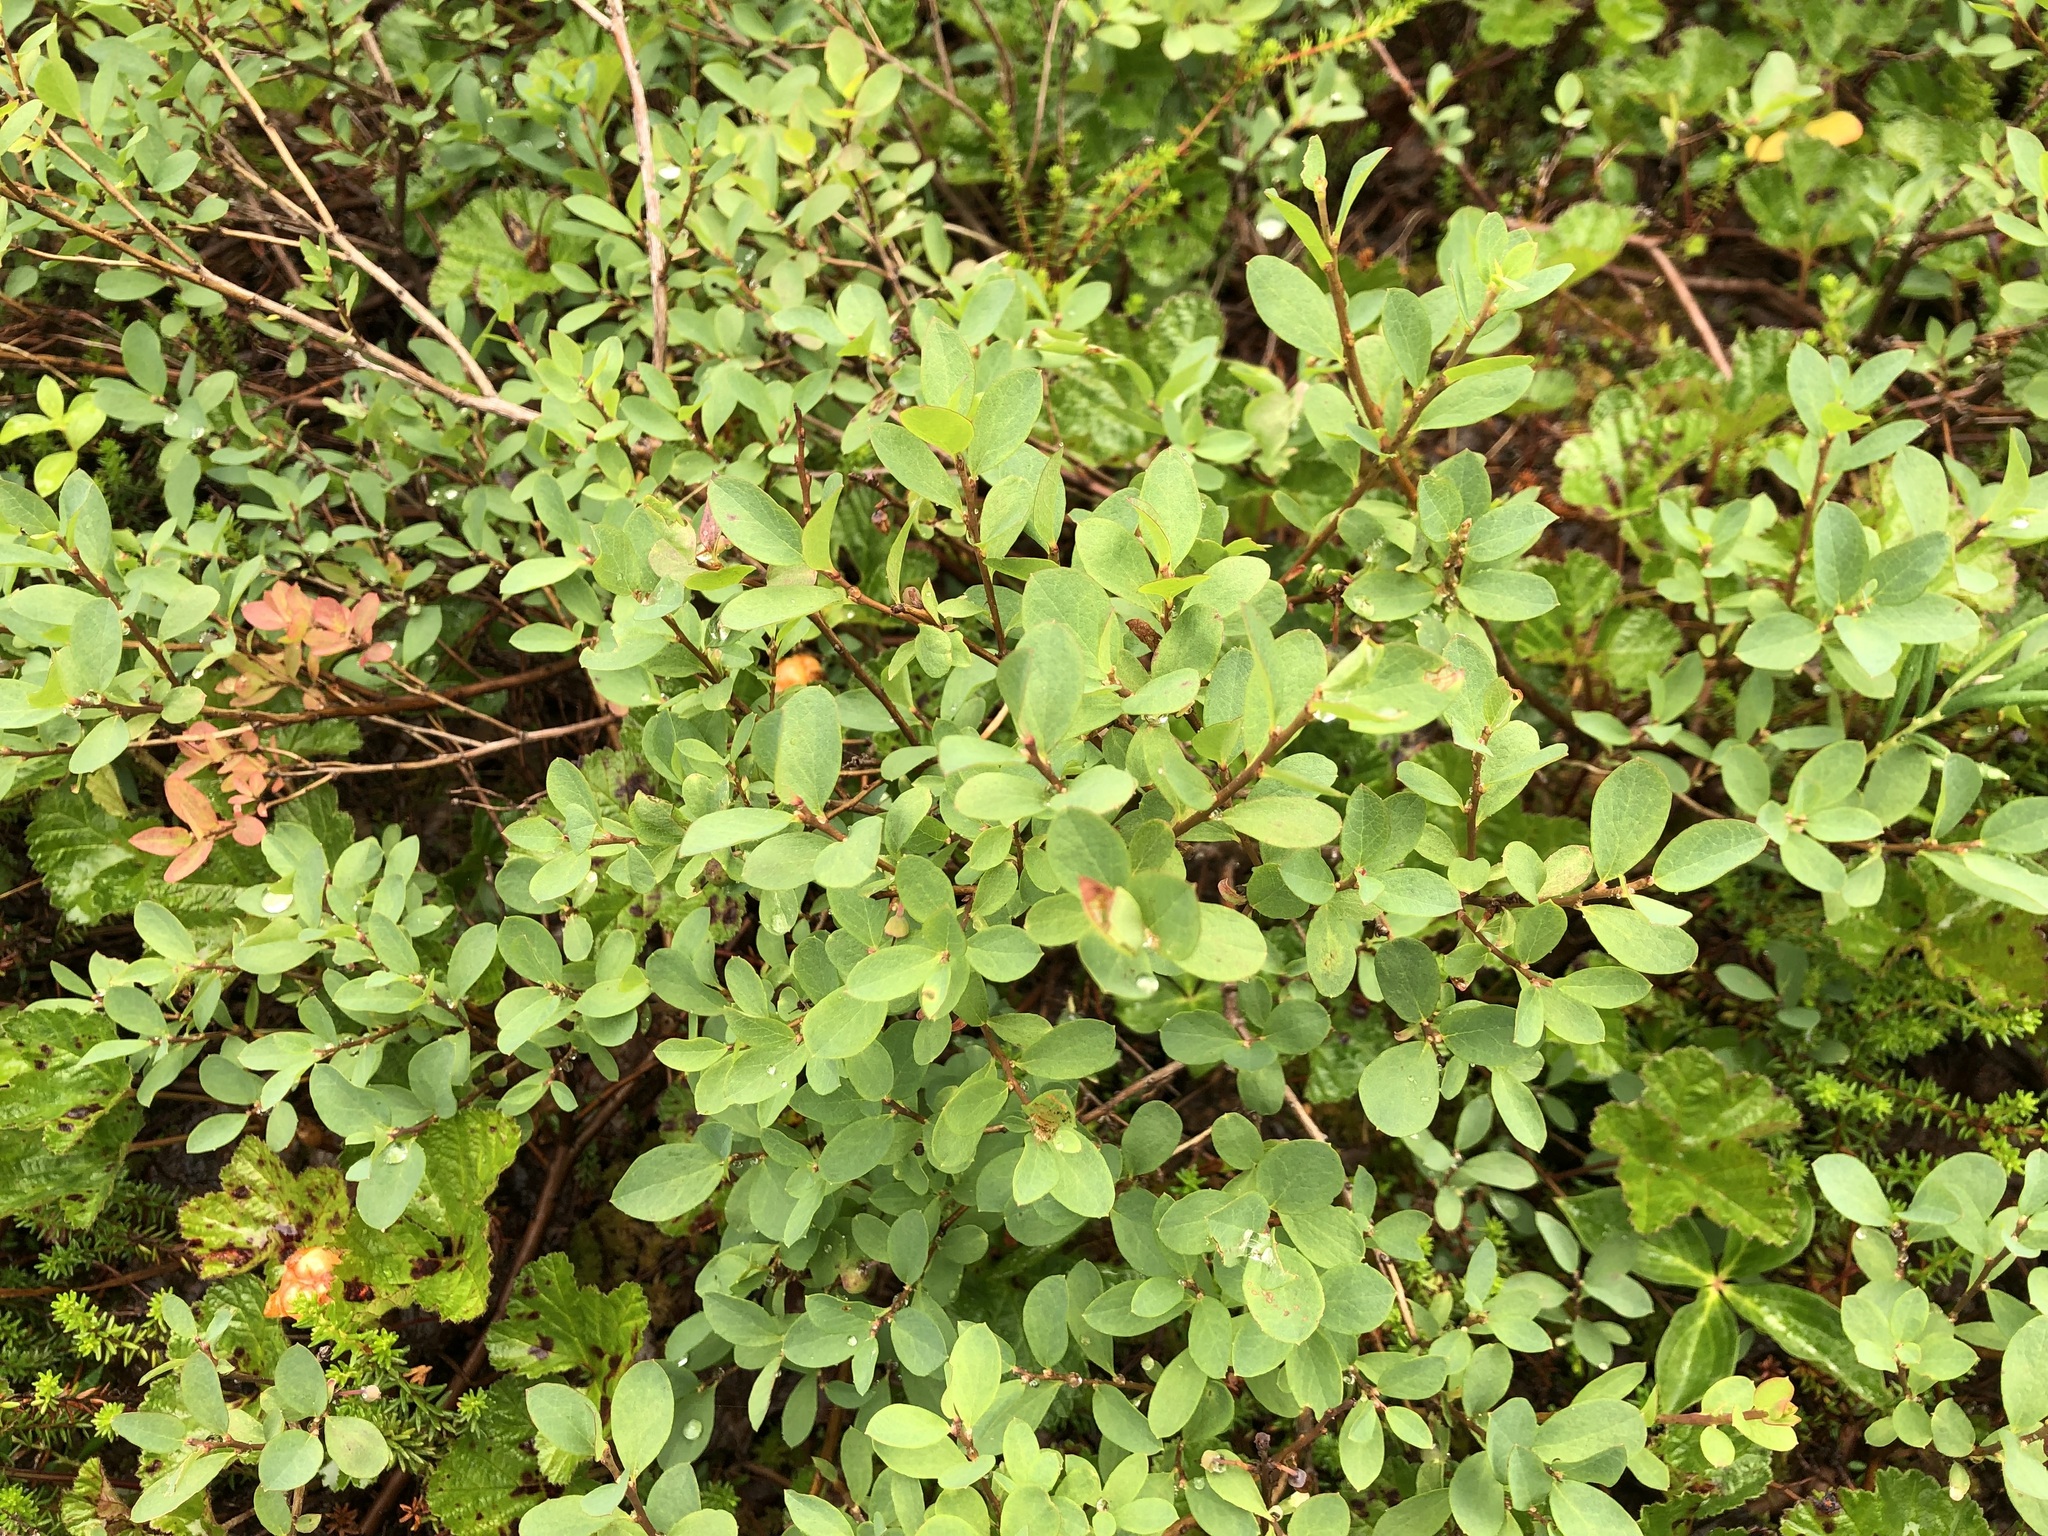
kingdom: Plantae
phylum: Tracheophyta
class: Magnoliopsida
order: Ericales
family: Ericaceae
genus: Vaccinium
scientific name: Vaccinium uliginosum
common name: Bog bilberry
